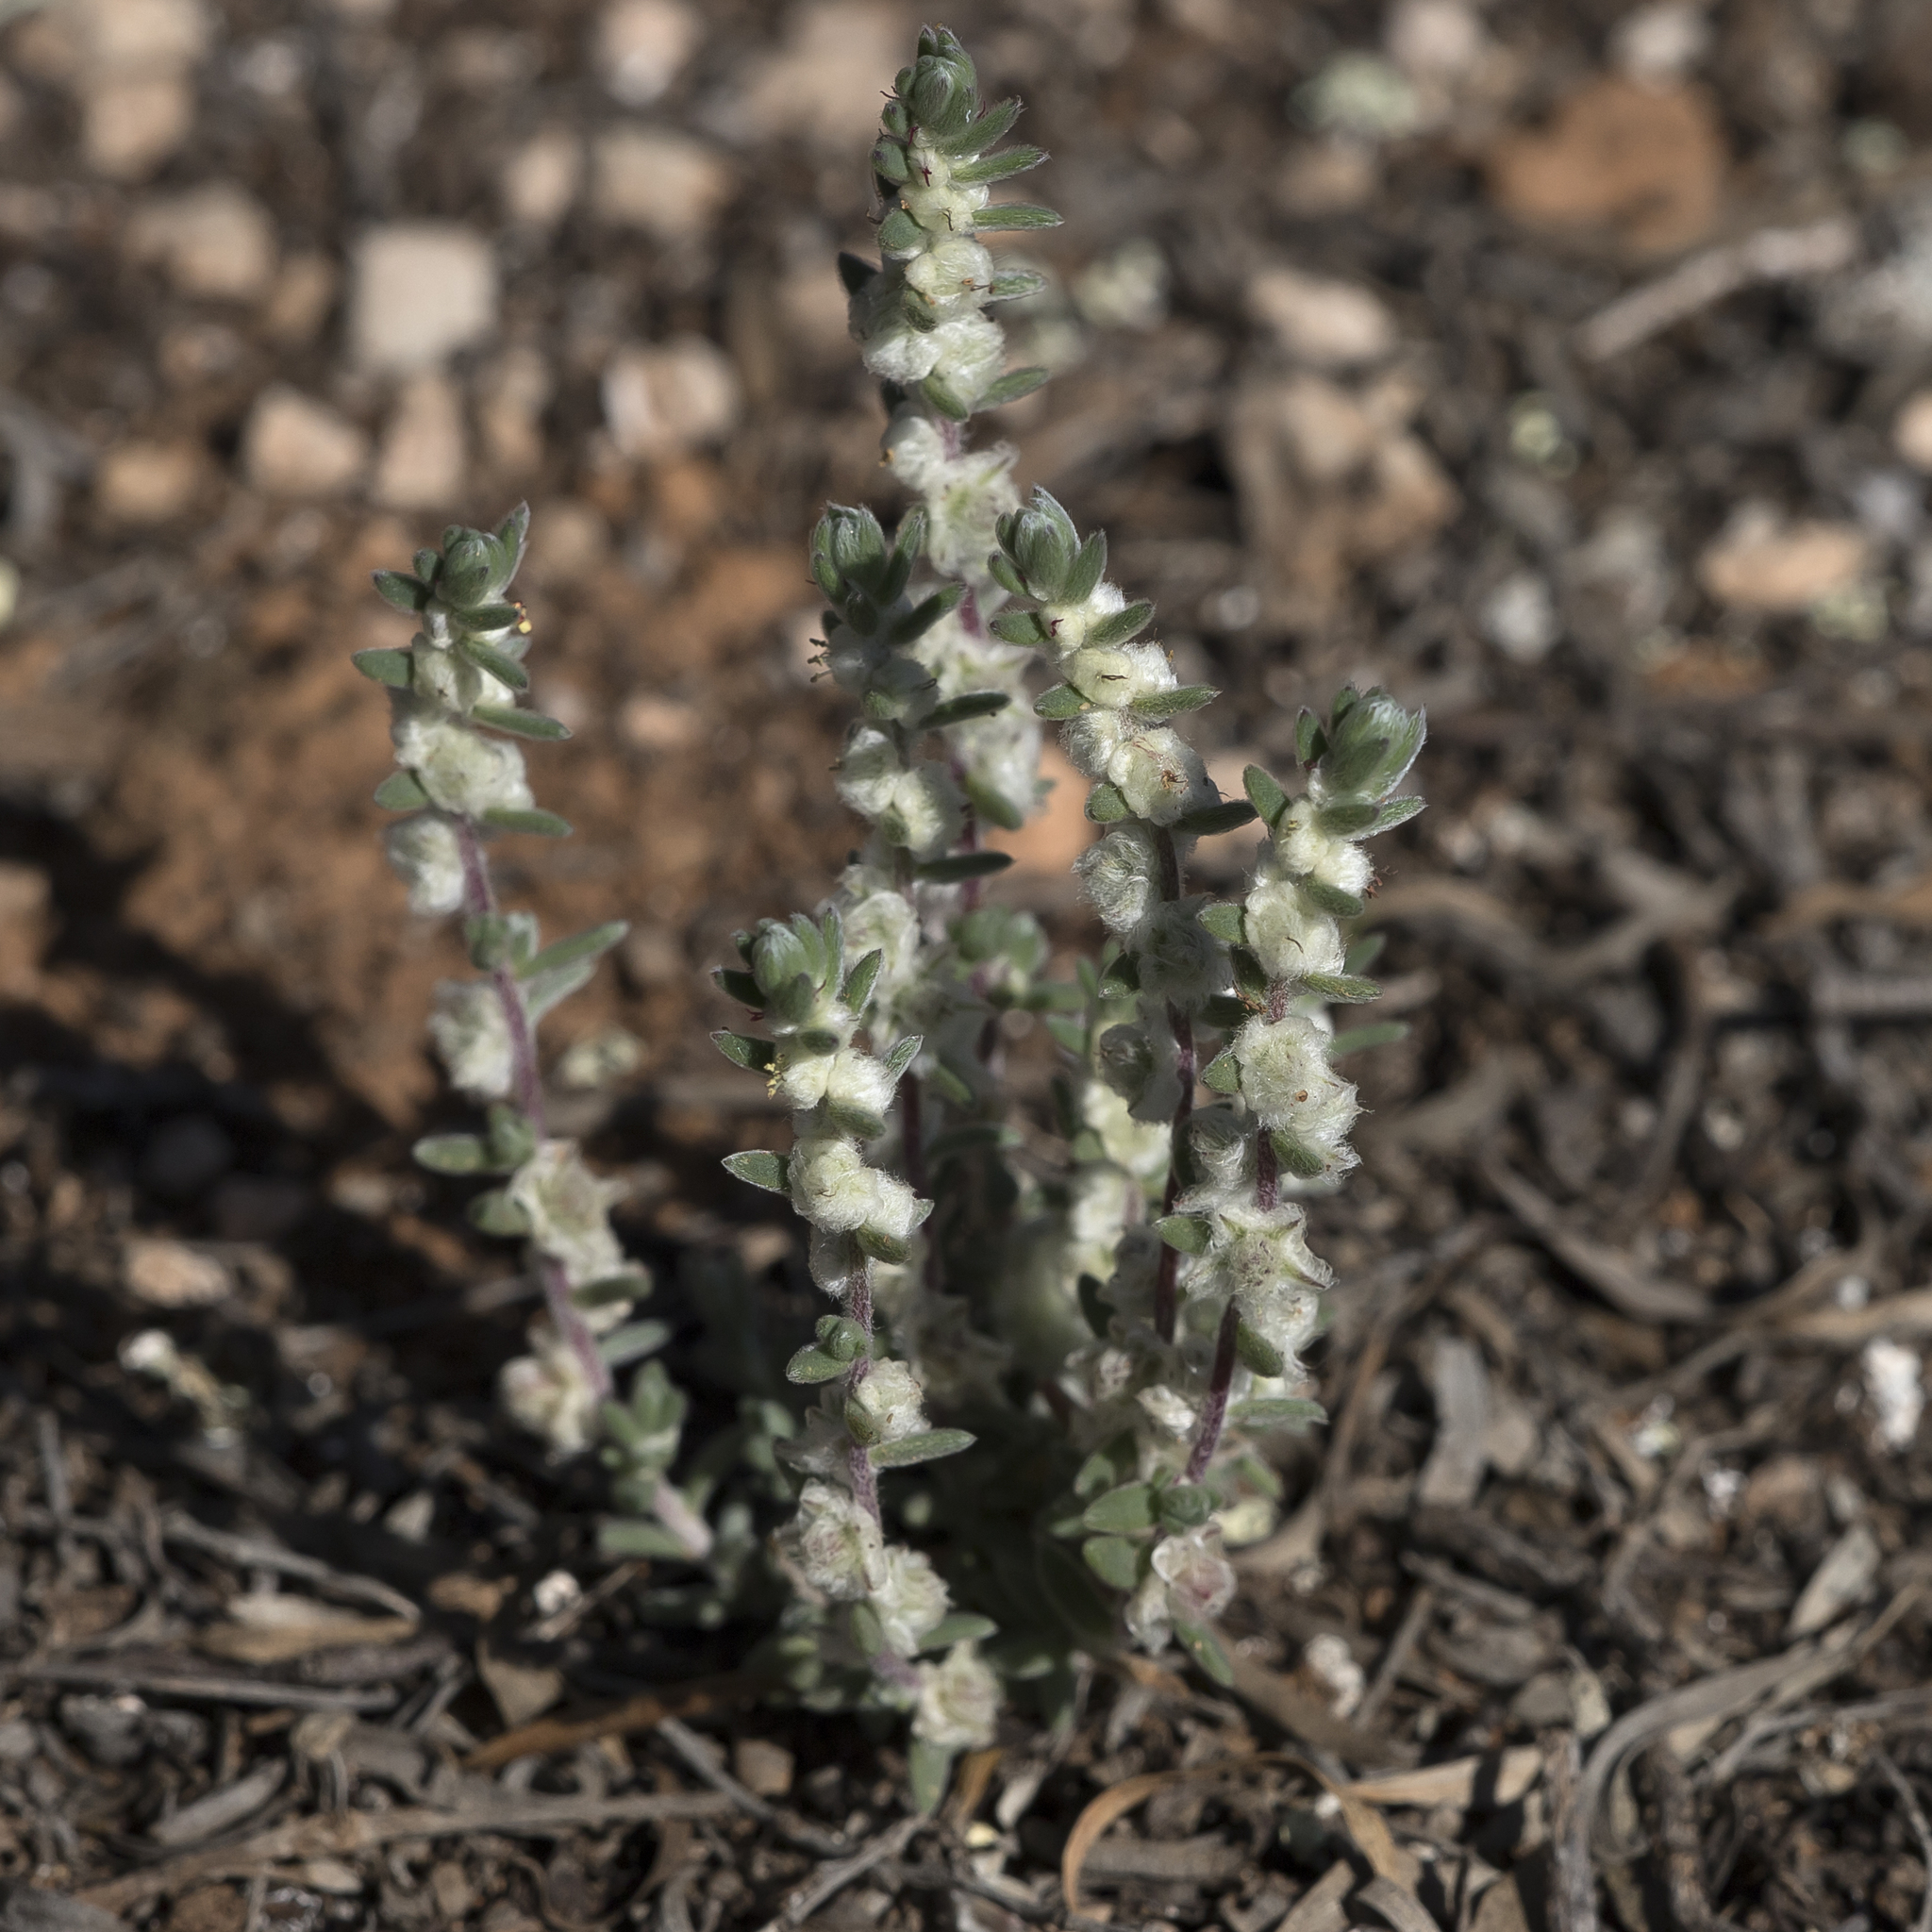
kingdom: Plantae
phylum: Tracheophyta
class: Magnoliopsida
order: Caryophyllales
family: Amaranthaceae
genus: Maireana
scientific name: Maireana sclerolaenoides
